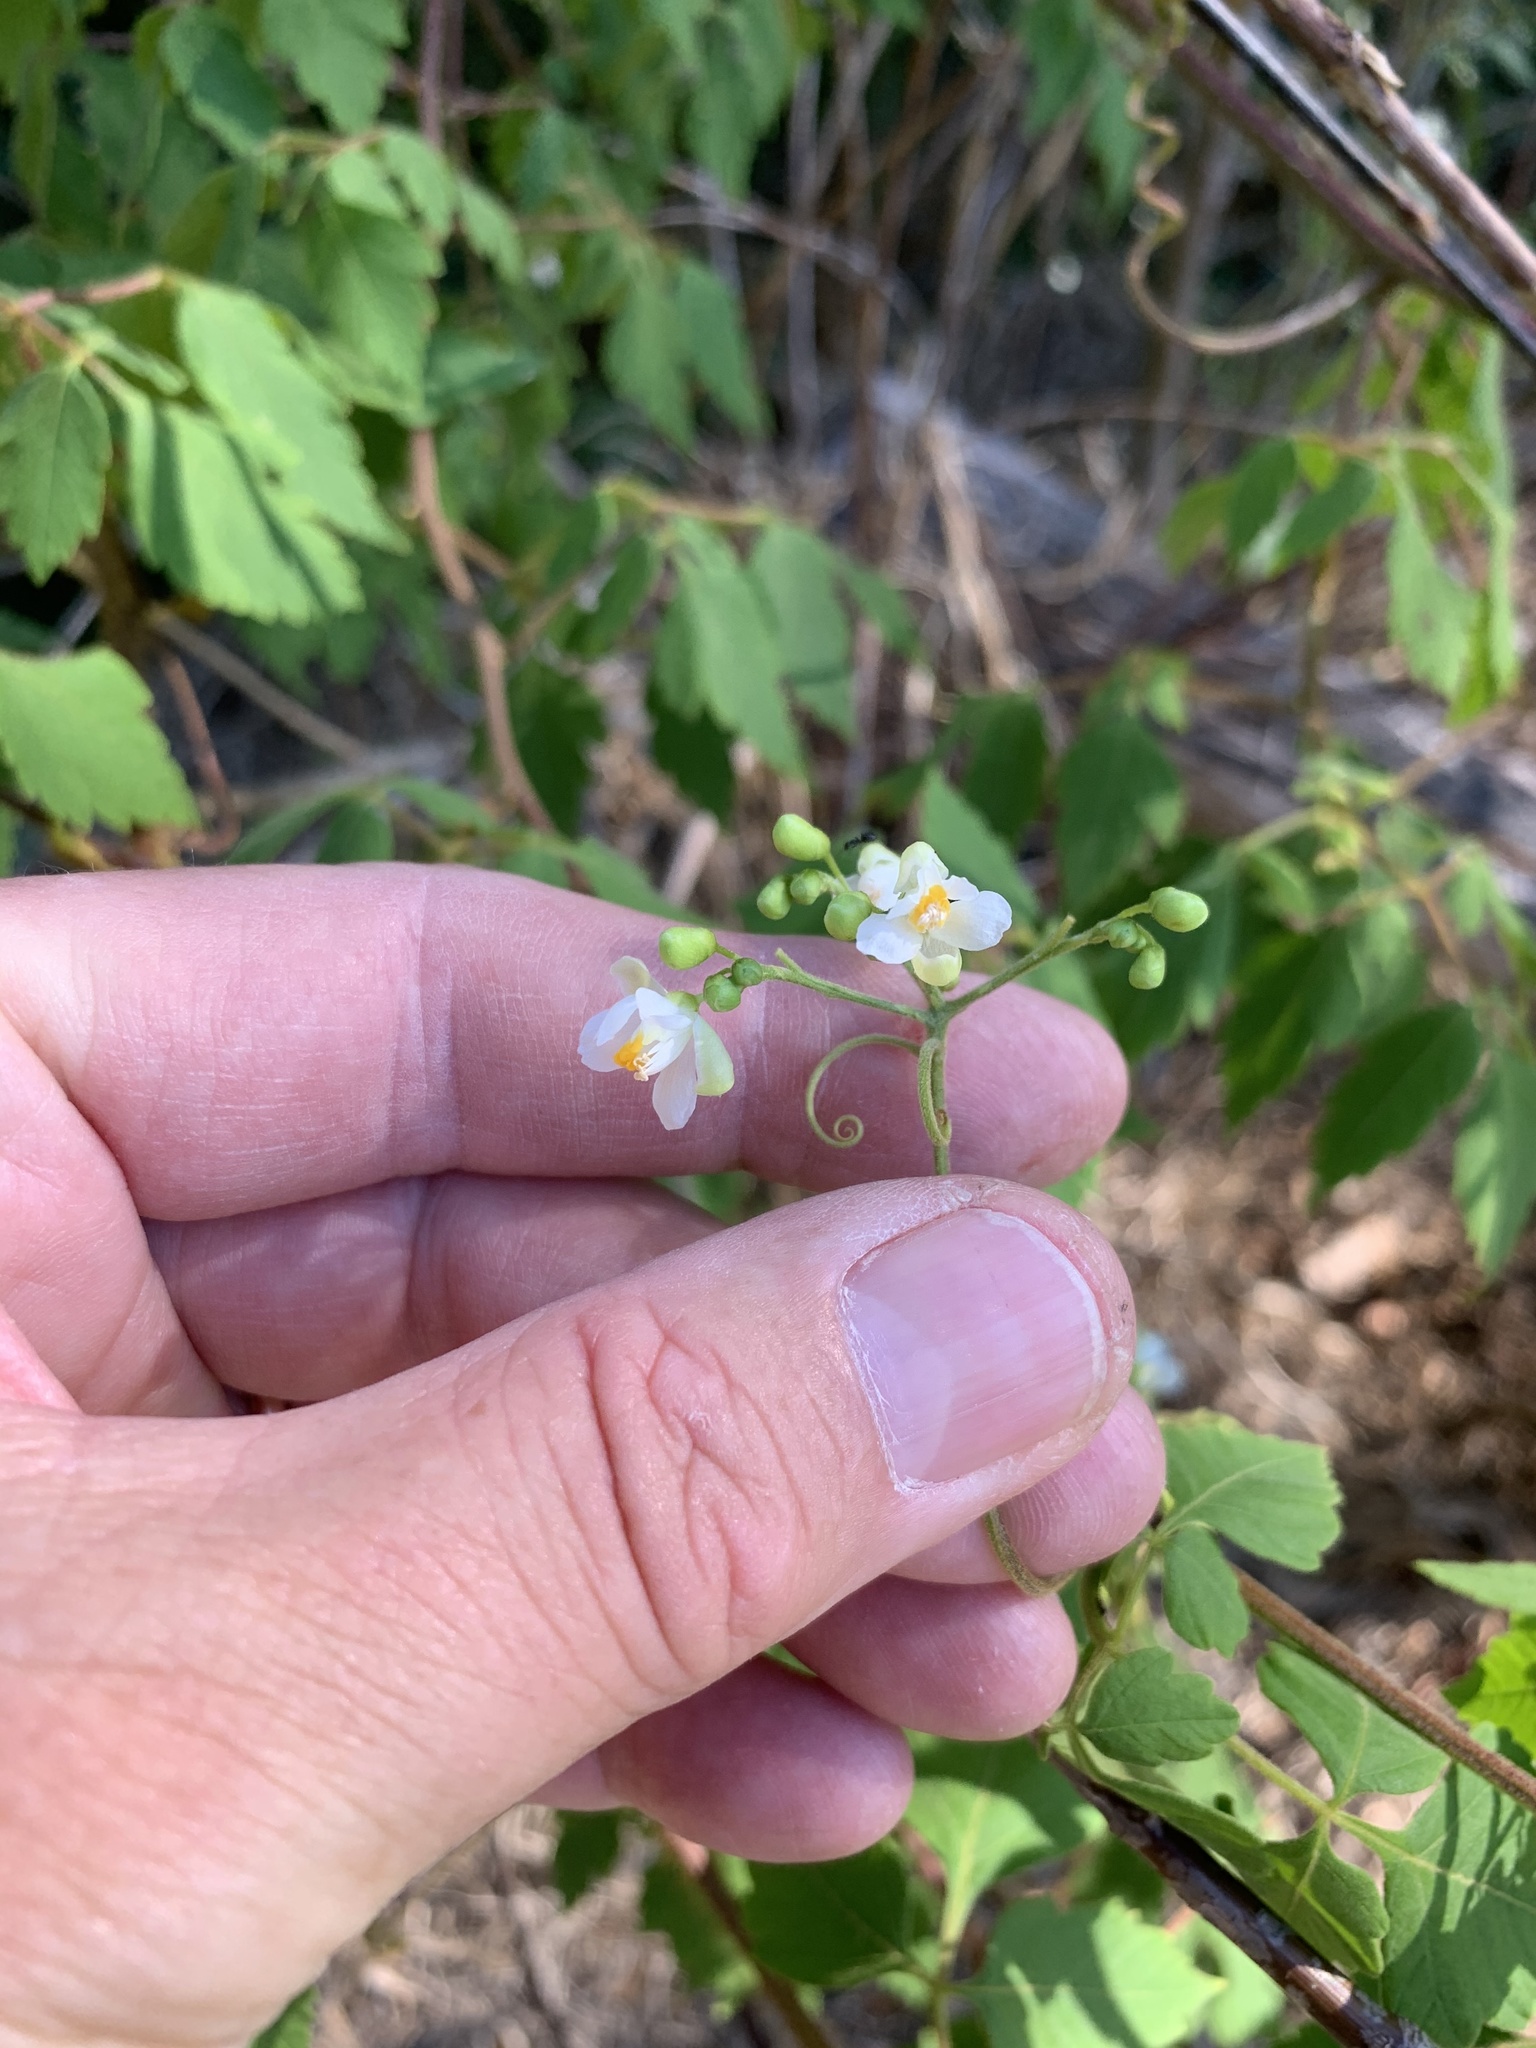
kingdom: Plantae
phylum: Tracheophyta
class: Magnoliopsida
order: Sapindales
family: Sapindaceae
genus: Cardiospermum
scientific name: Cardiospermum grandiflorum
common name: Balloon vine
